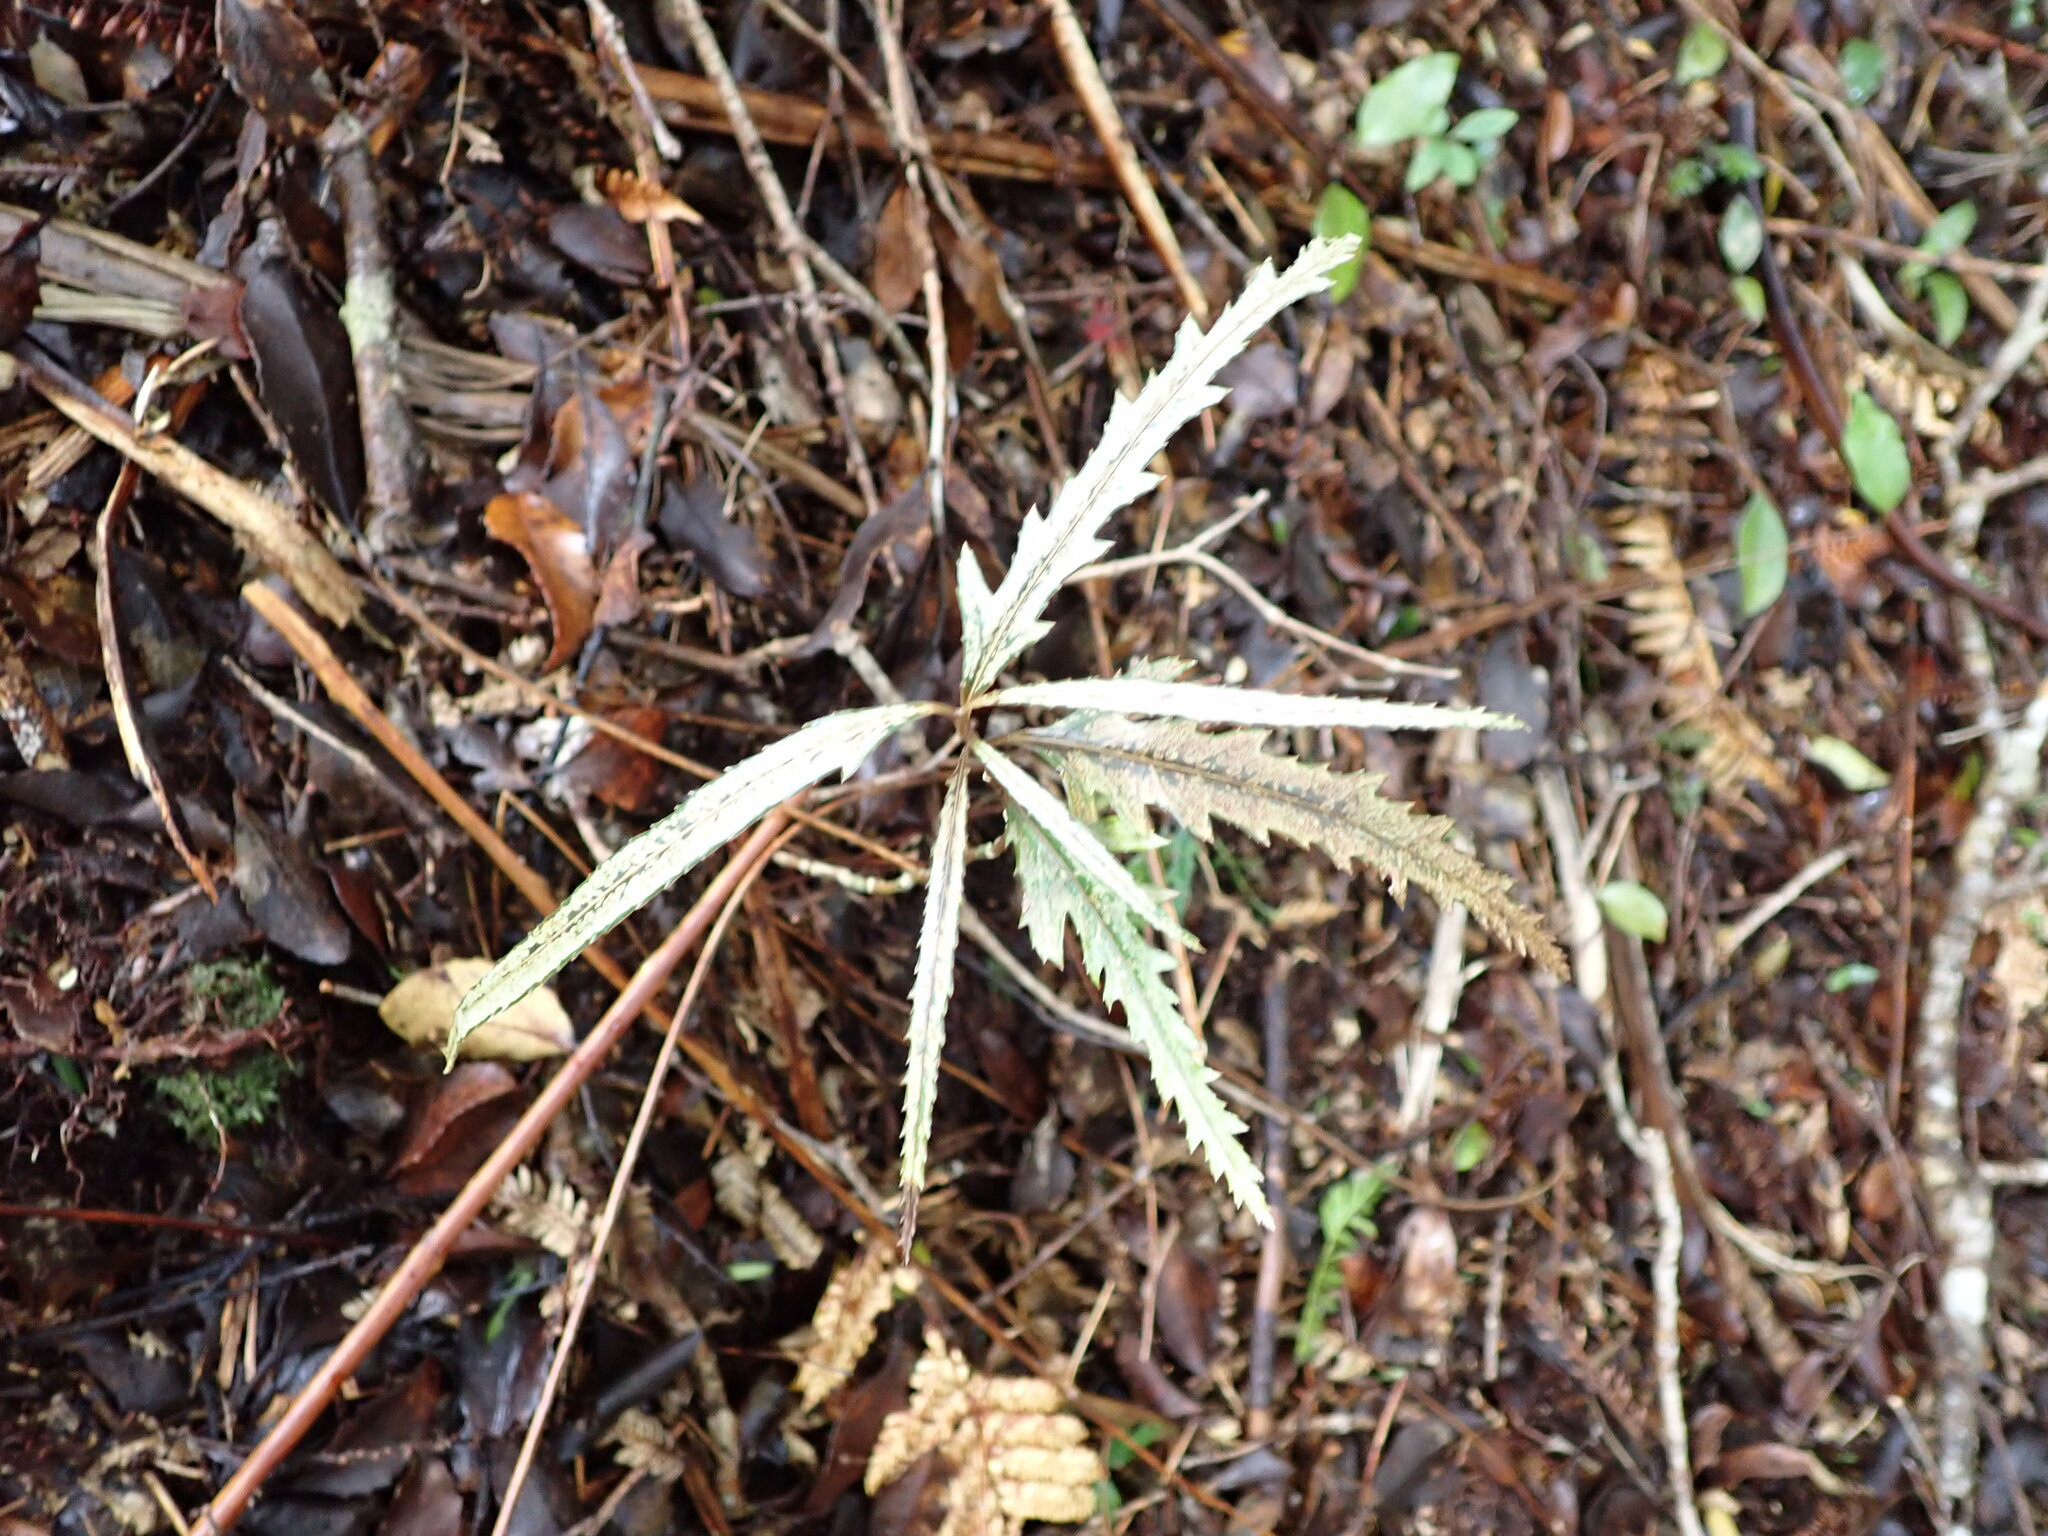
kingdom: Plantae
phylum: Tracheophyta
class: Magnoliopsida
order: Apiales
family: Araliaceae
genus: Pseudopanax
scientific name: Pseudopanax crassifolius
